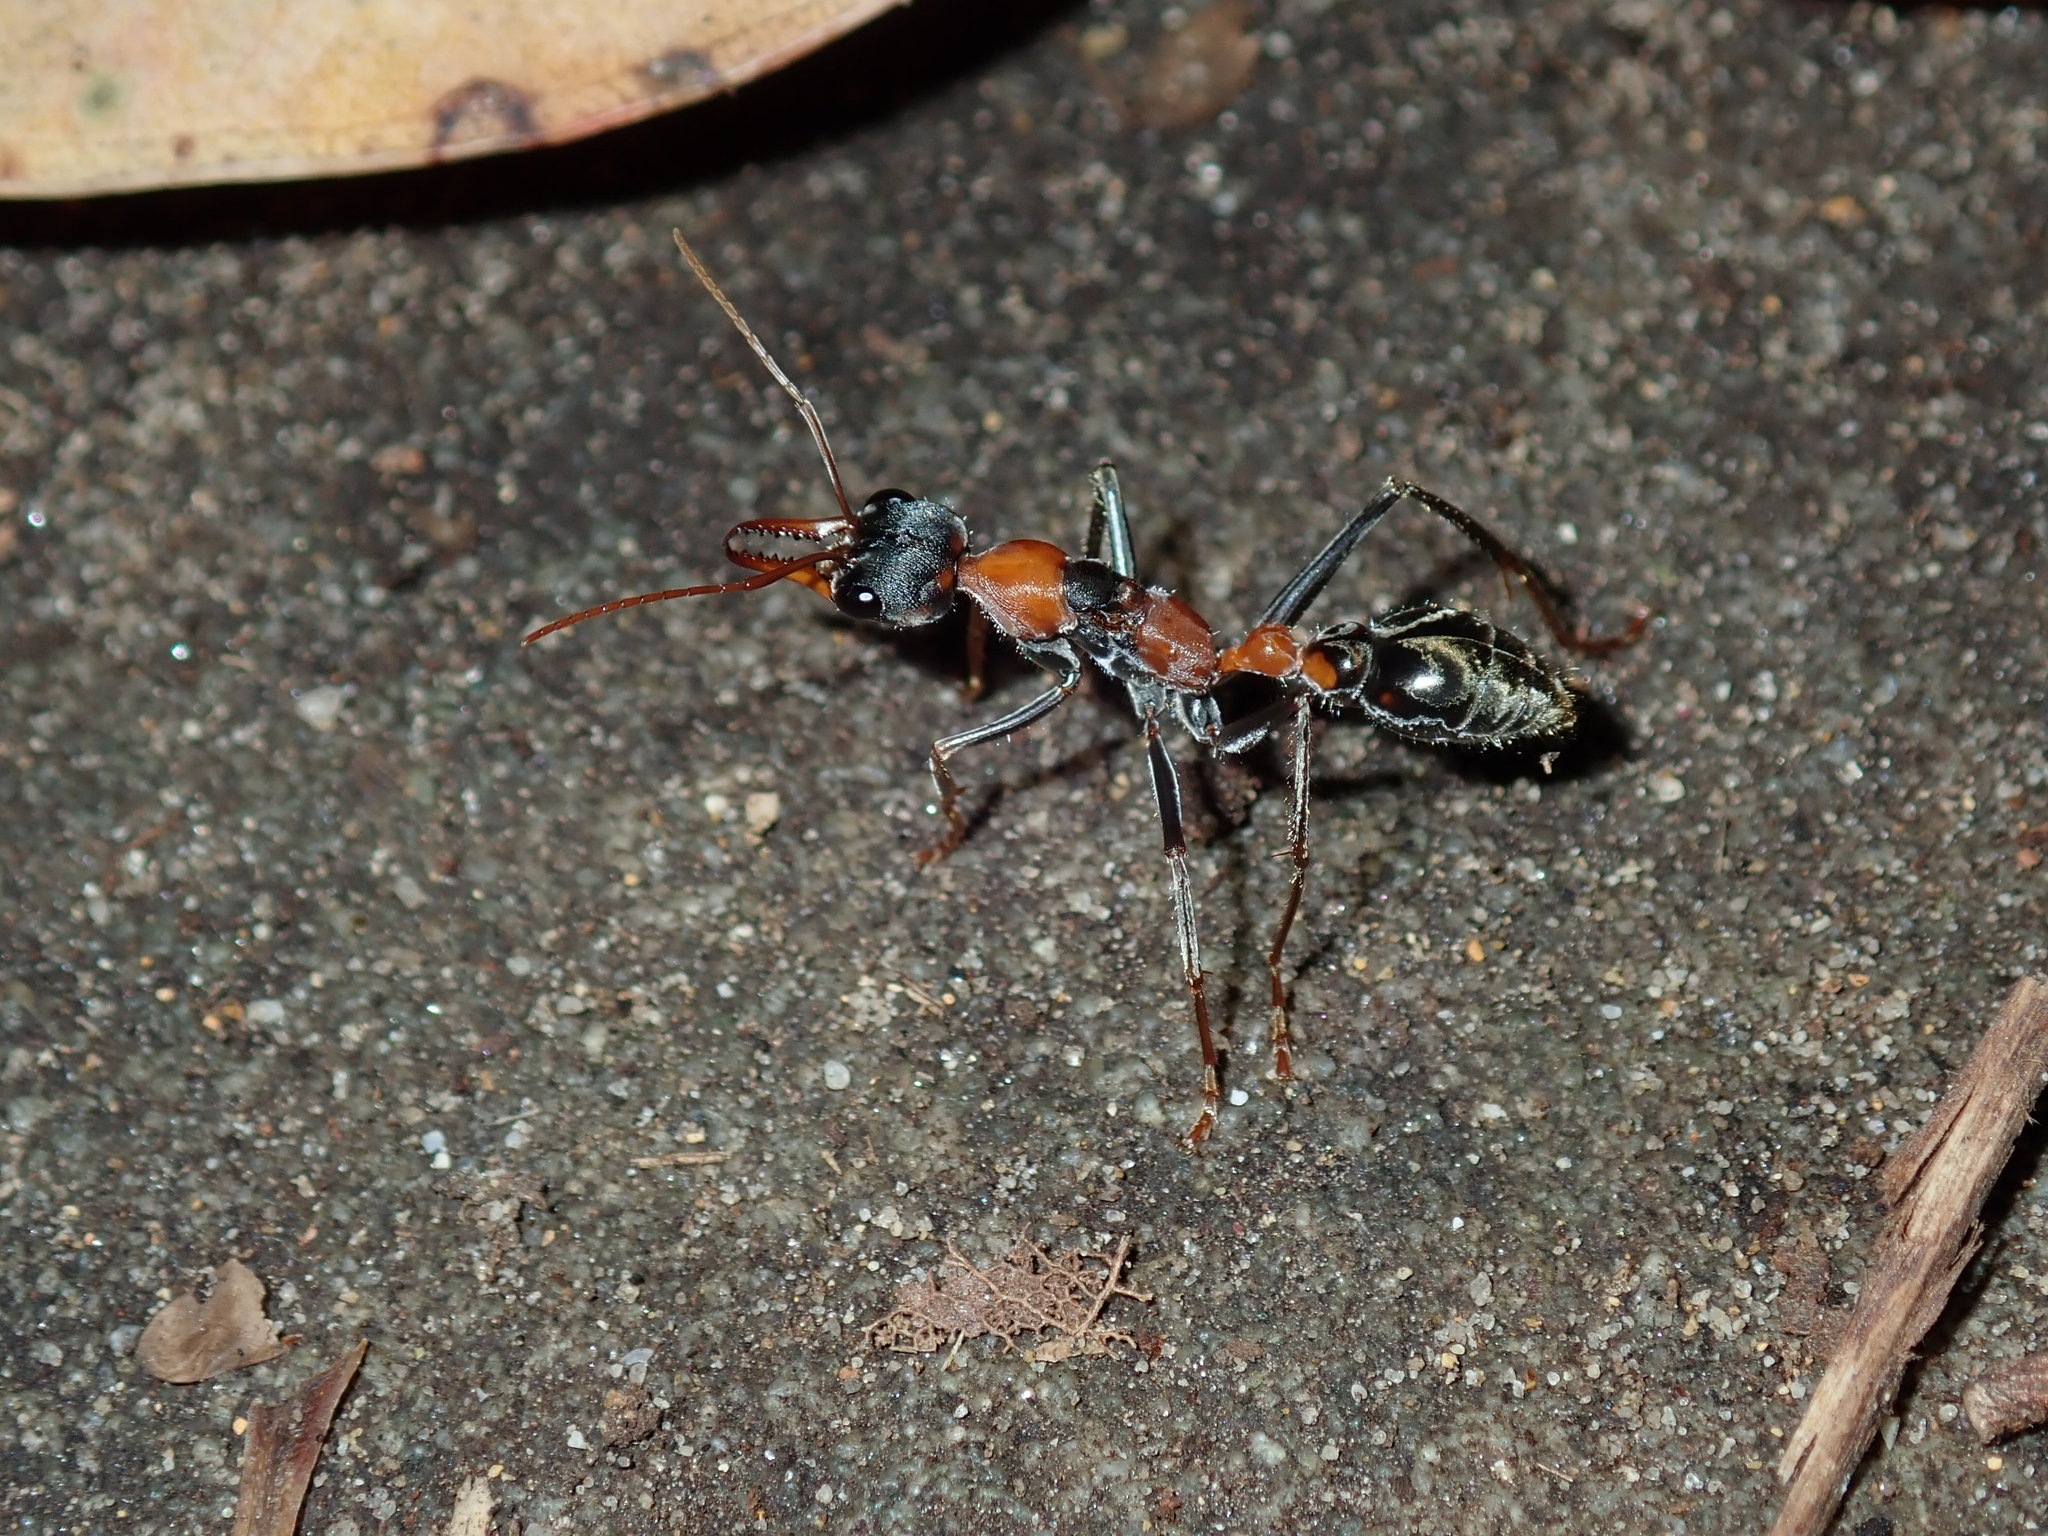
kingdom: Animalia
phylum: Arthropoda
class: Insecta
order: Hymenoptera
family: Formicidae
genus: Myrmecia
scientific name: Myrmecia nigrocincta
